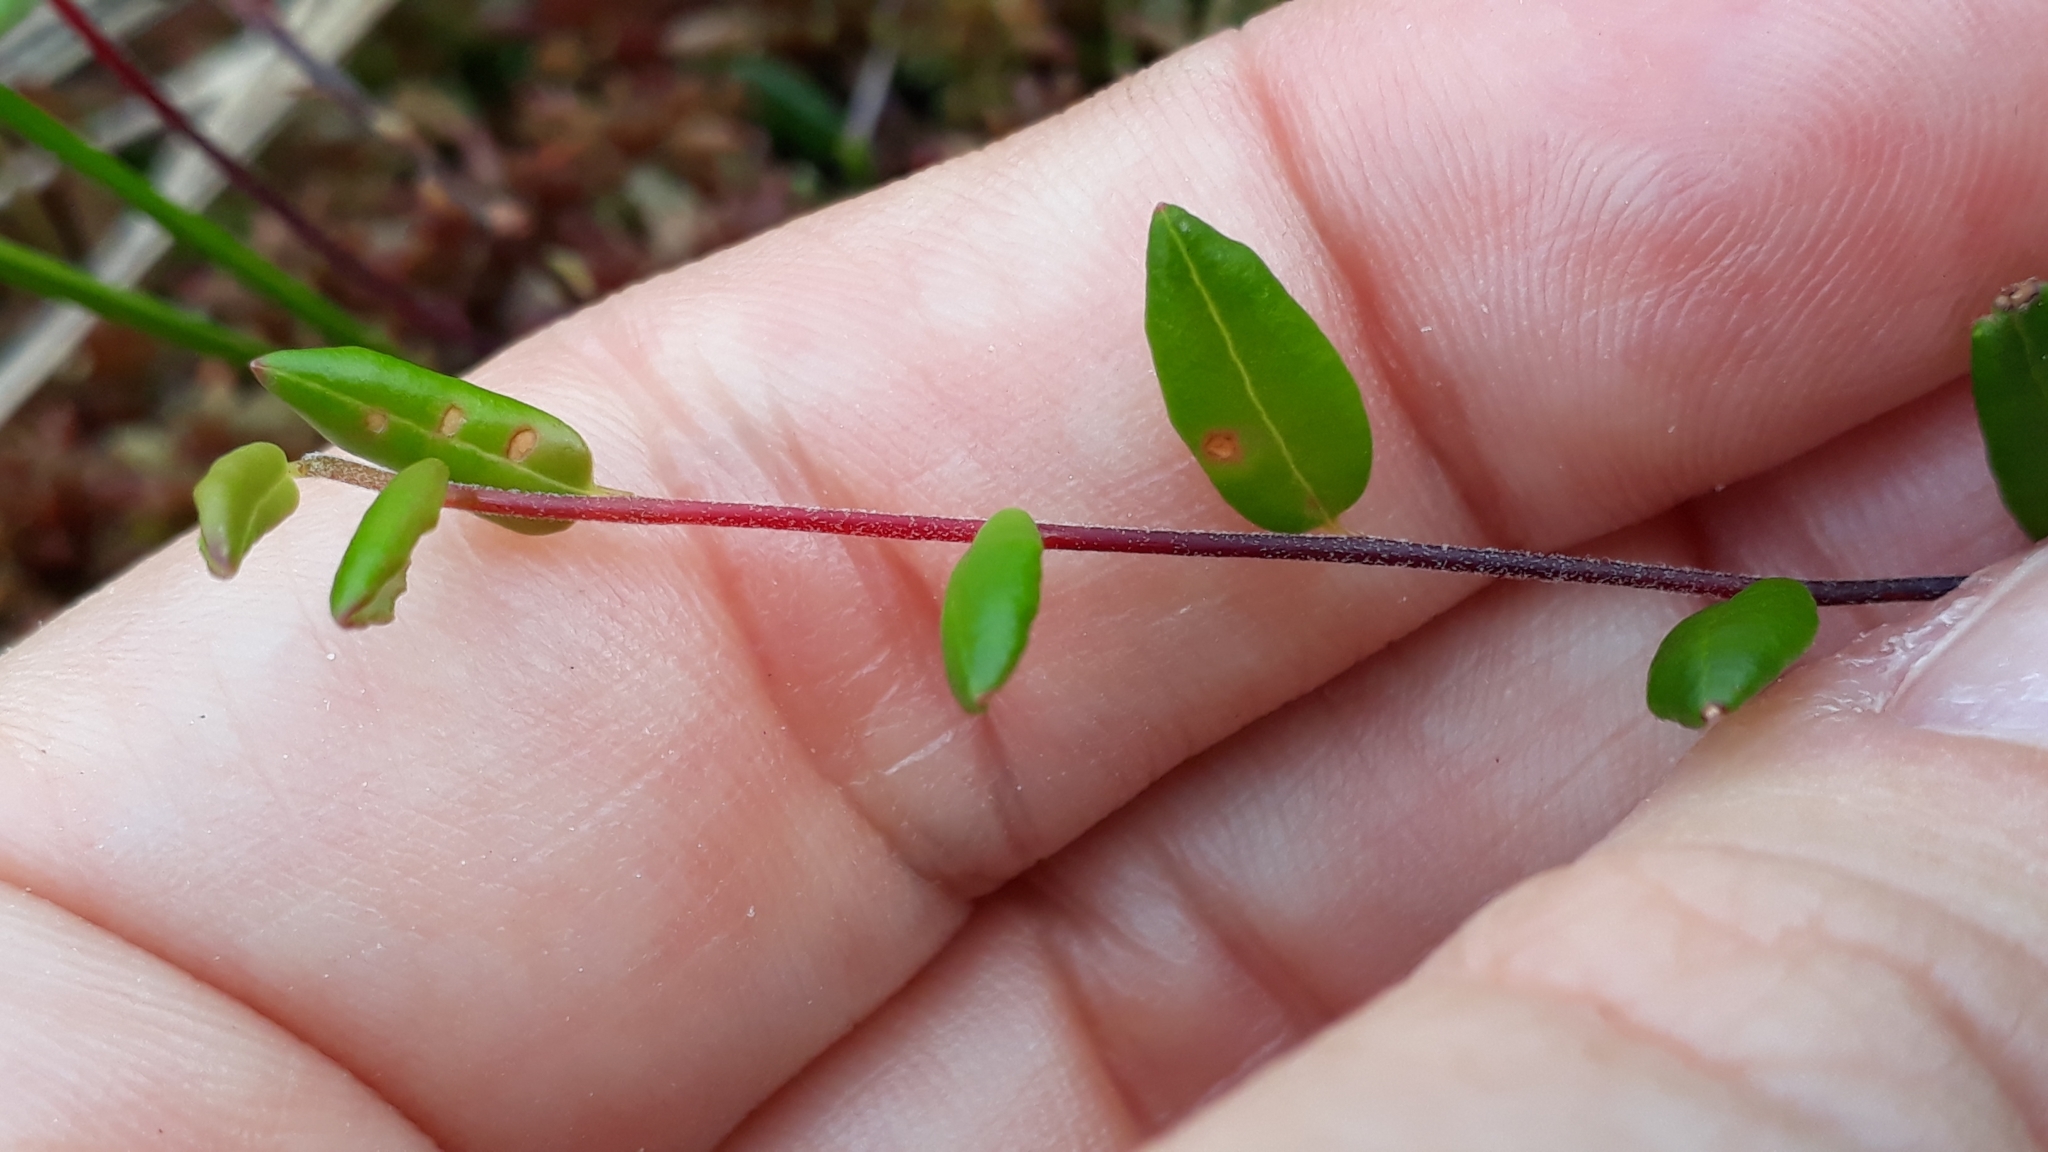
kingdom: Plantae
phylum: Tracheophyta
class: Magnoliopsida
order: Ericales
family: Ericaceae
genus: Vaccinium
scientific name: Vaccinium oxycoccos
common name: Cranberry
